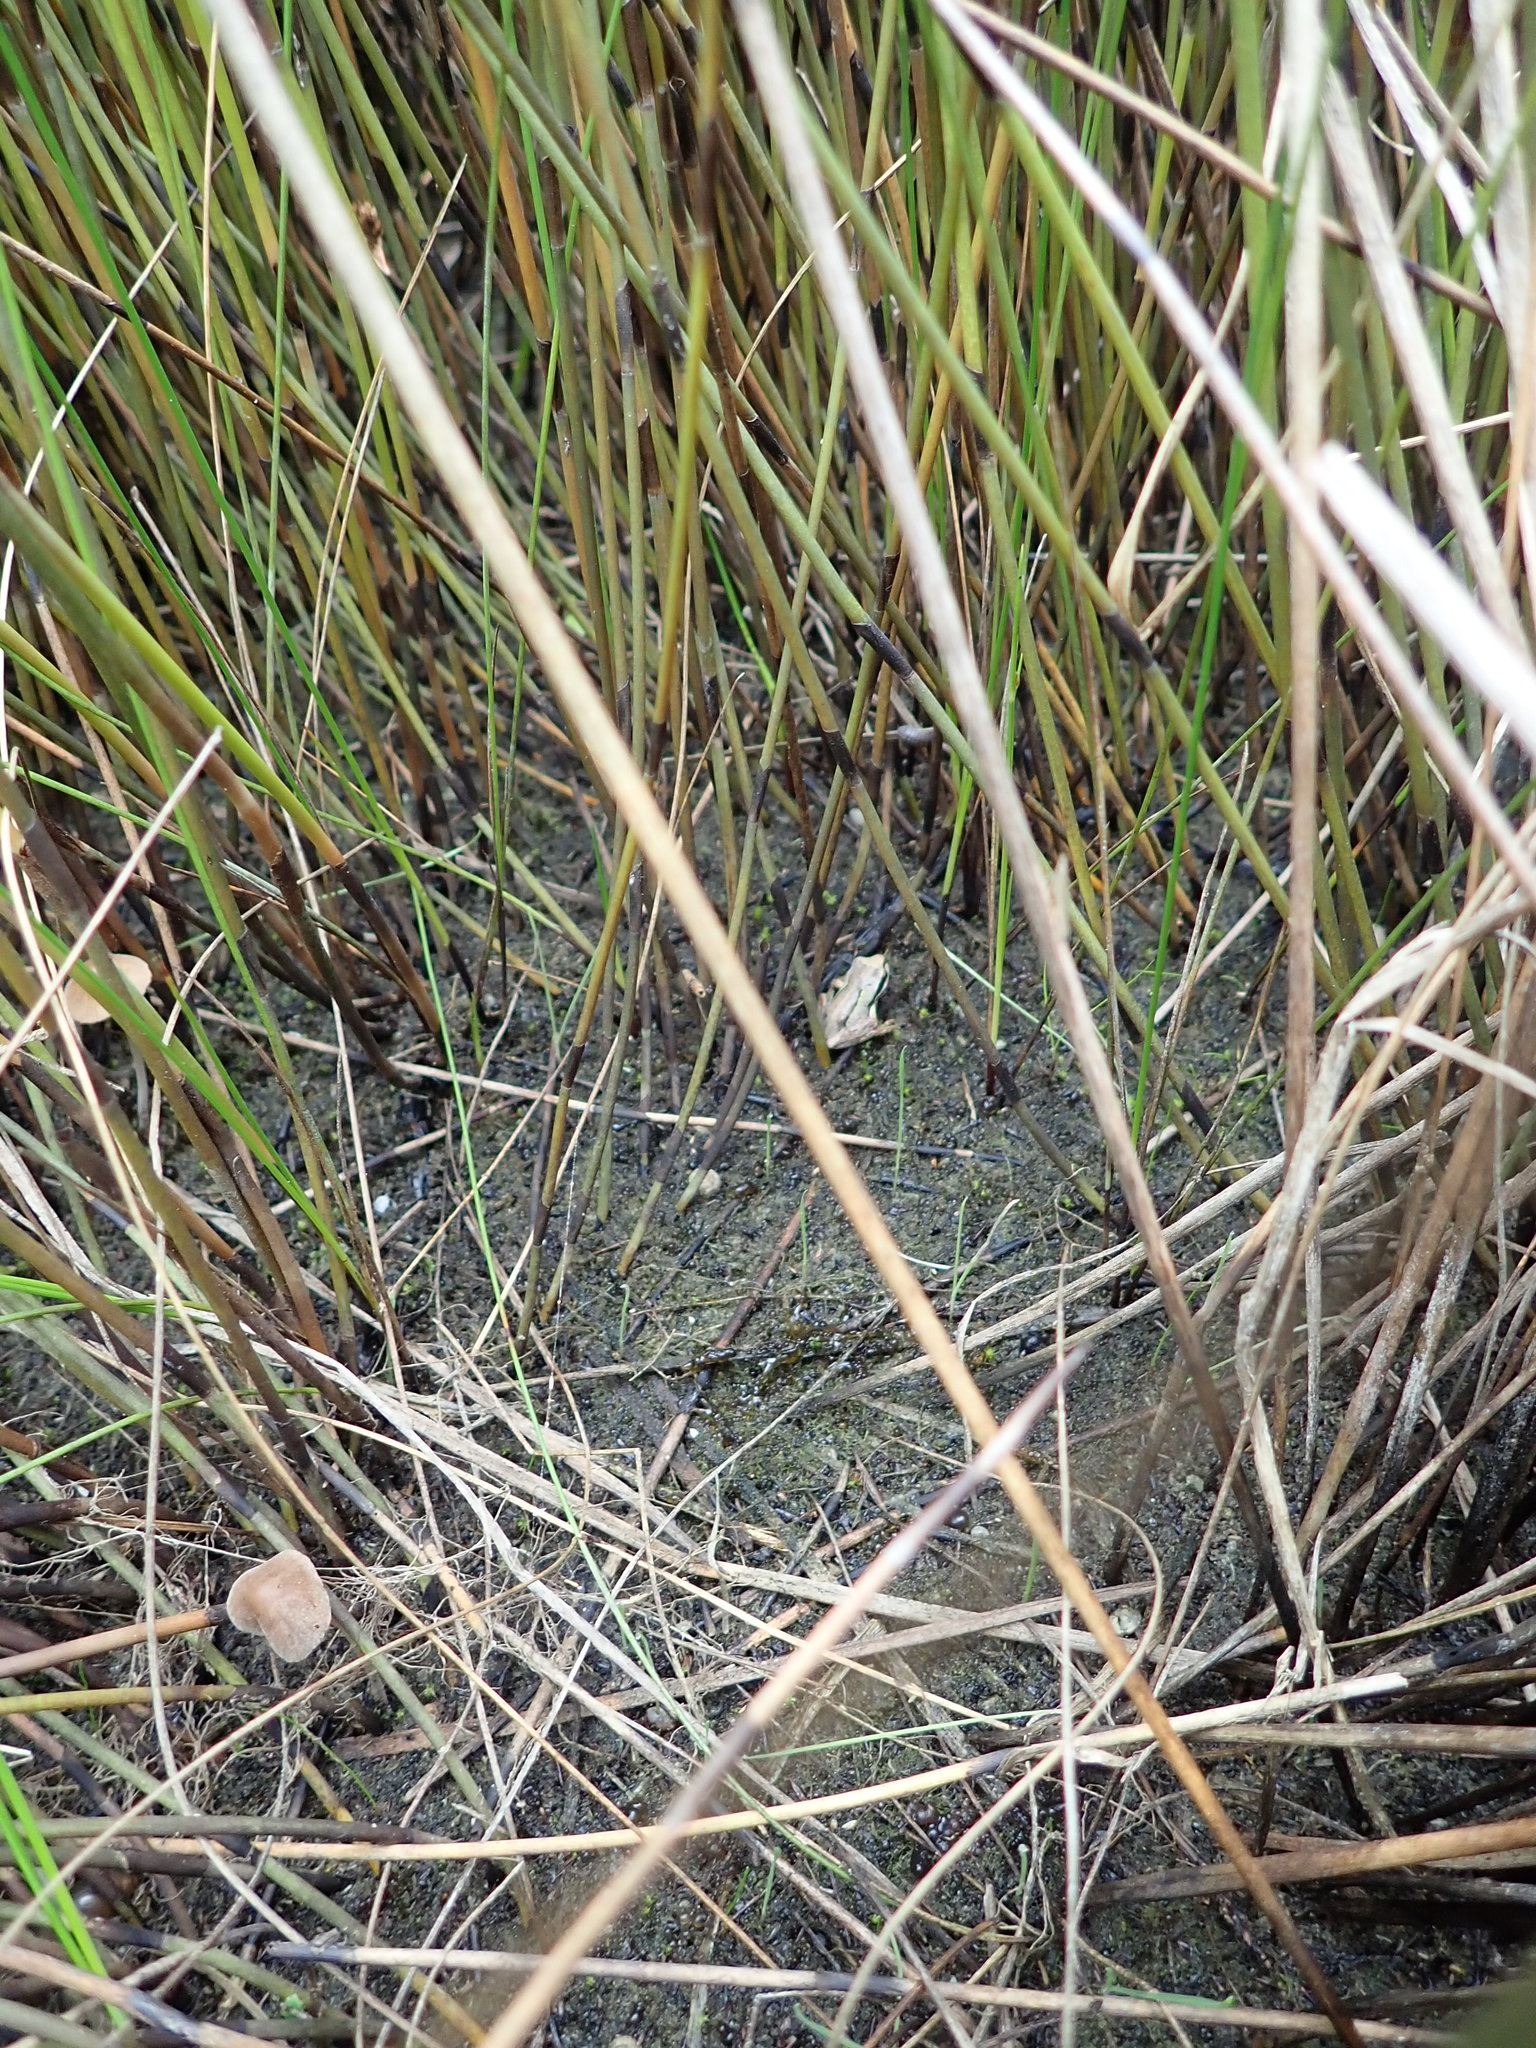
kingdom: Animalia
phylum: Chordata
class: Amphibia
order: Anura
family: Pelodryadidae
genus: Litoria
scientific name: Litoria ewingii
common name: Southern brown tree frog
